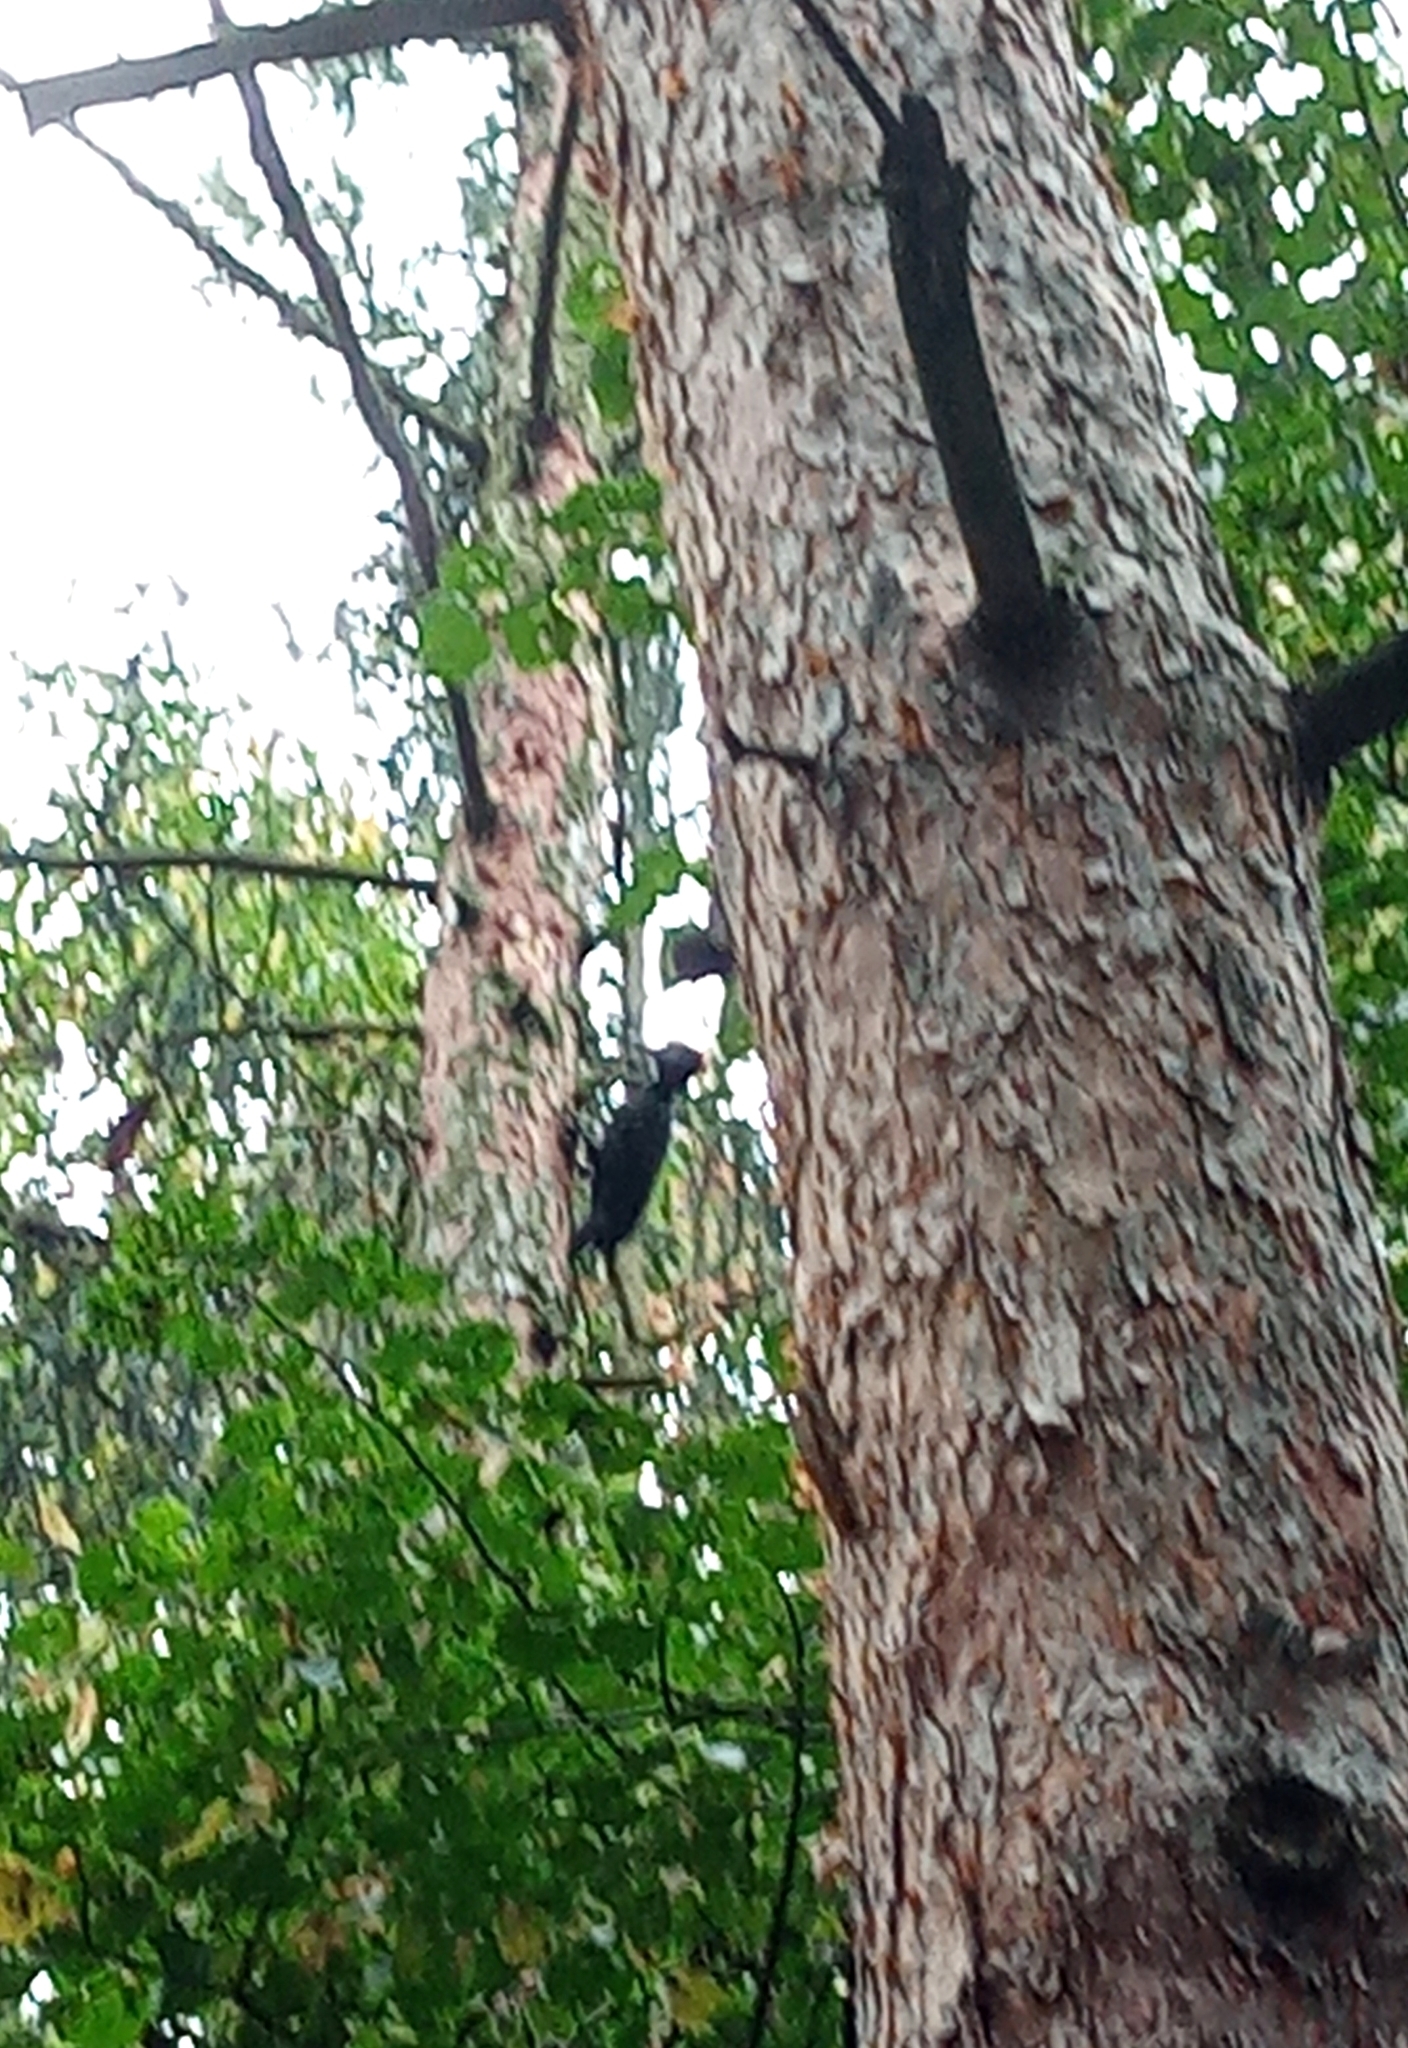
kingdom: Animalia
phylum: Chordata
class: Aves
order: Piciformes
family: Picidae
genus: Dryocopus
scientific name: Dryocopus martius
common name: Black woodpecker
